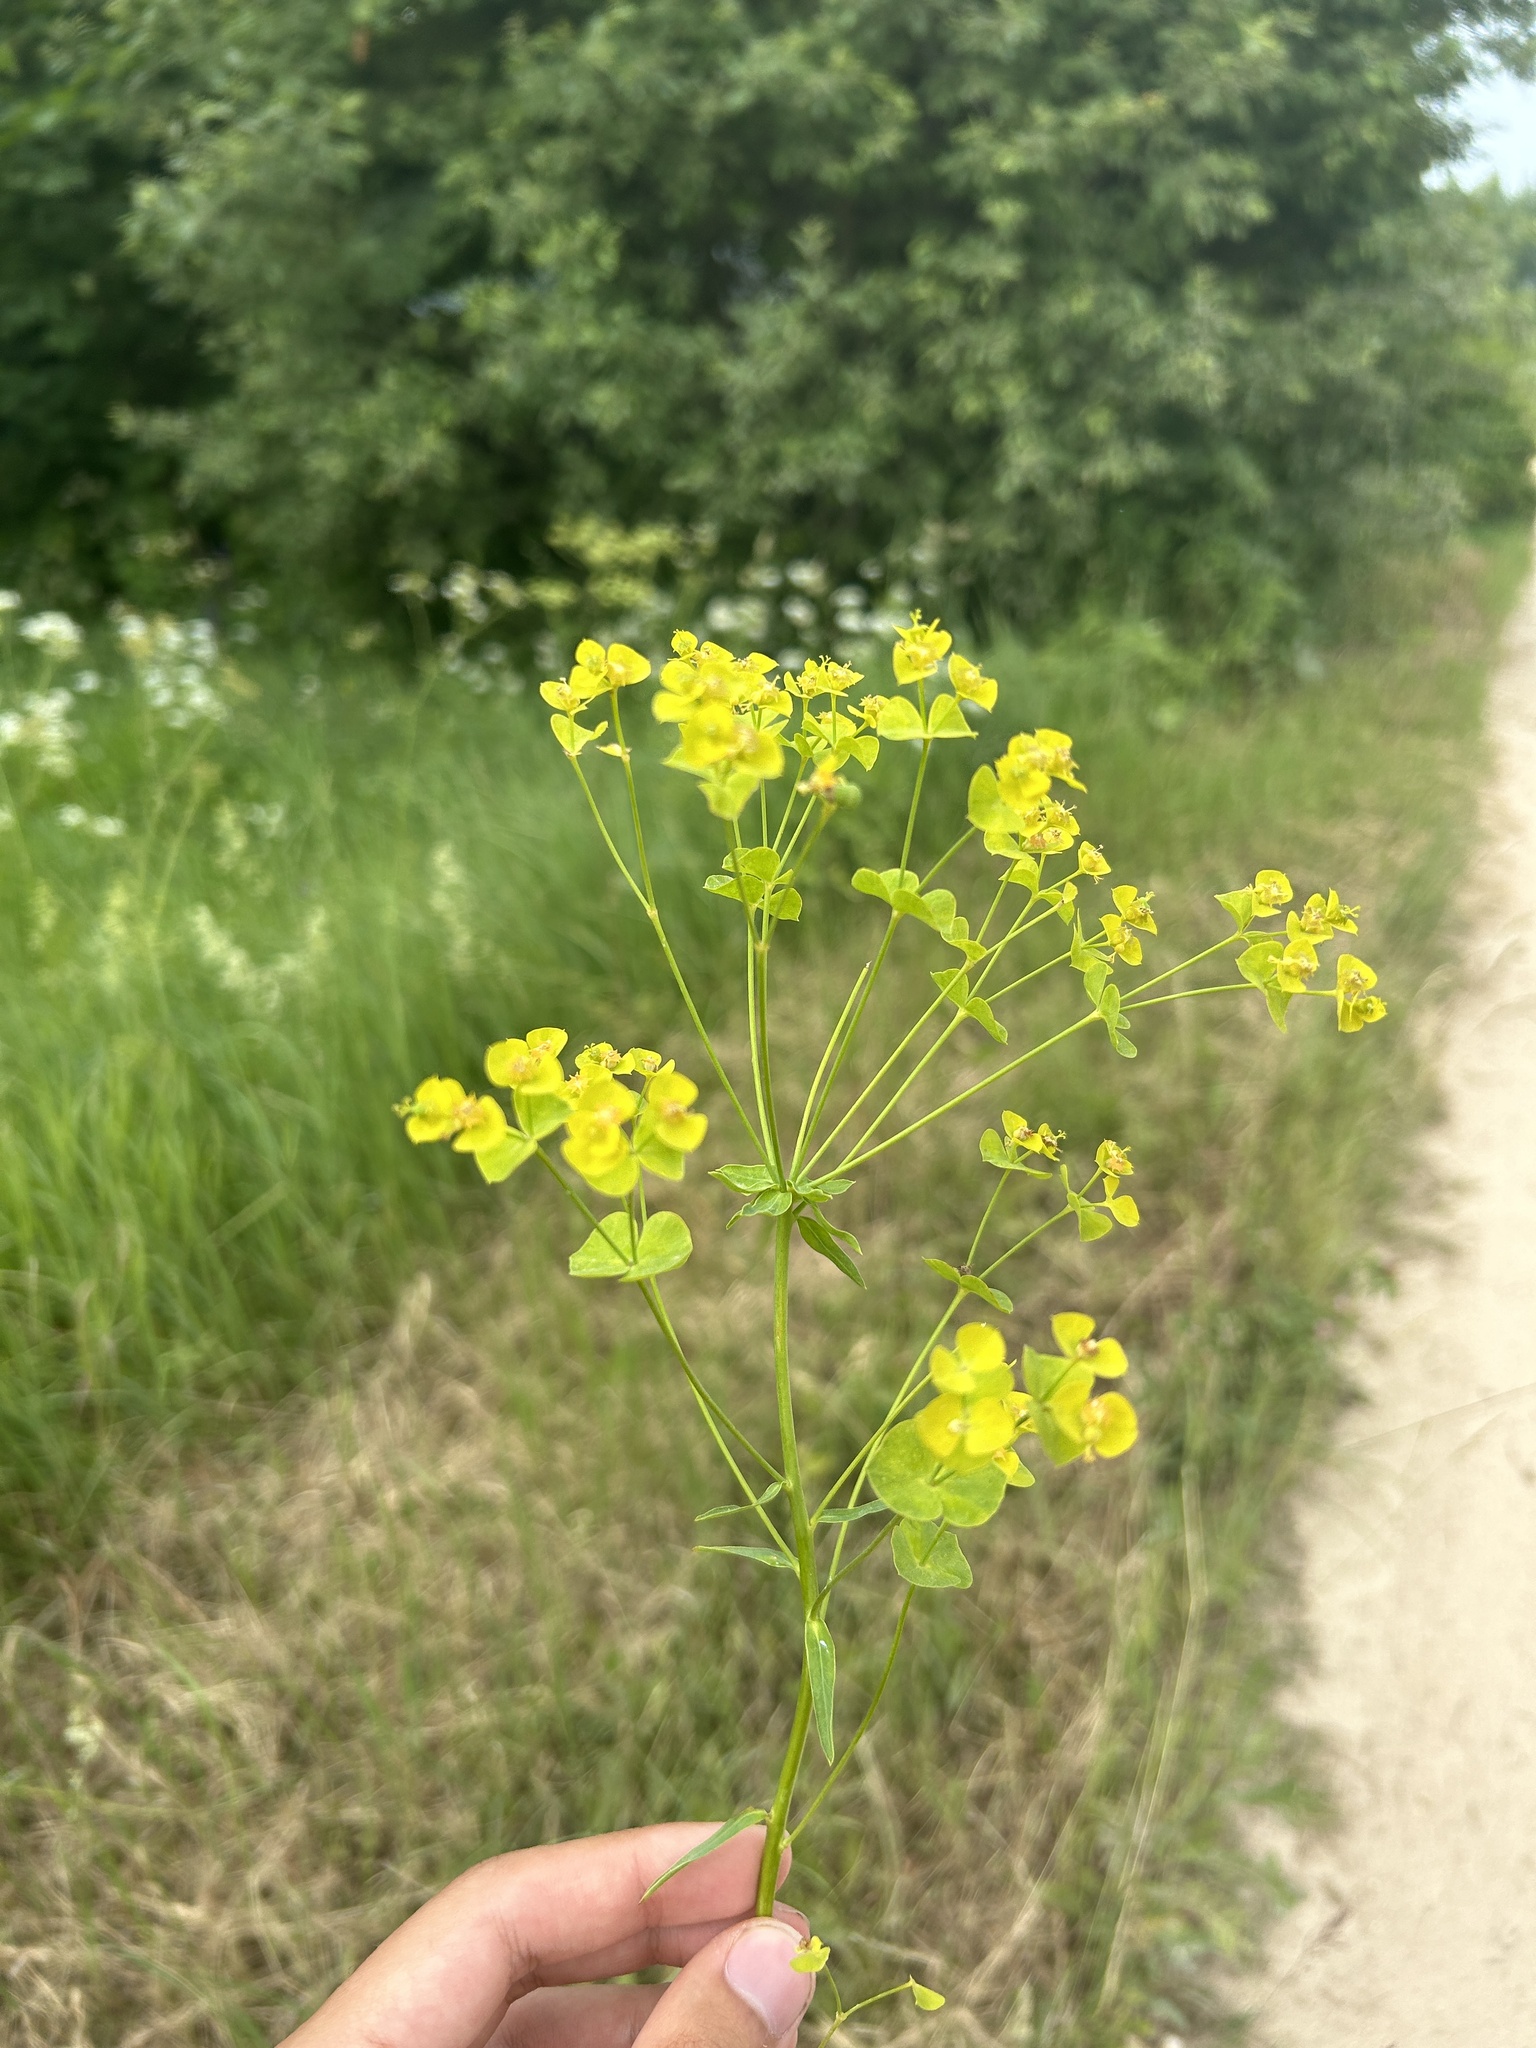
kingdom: Plantae
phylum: Tracheophyta
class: Magnoliopsida
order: Malpighiales
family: Euphorbiaceae
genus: Euphorbia
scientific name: Euphorbia virgata
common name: Leafy spurge
